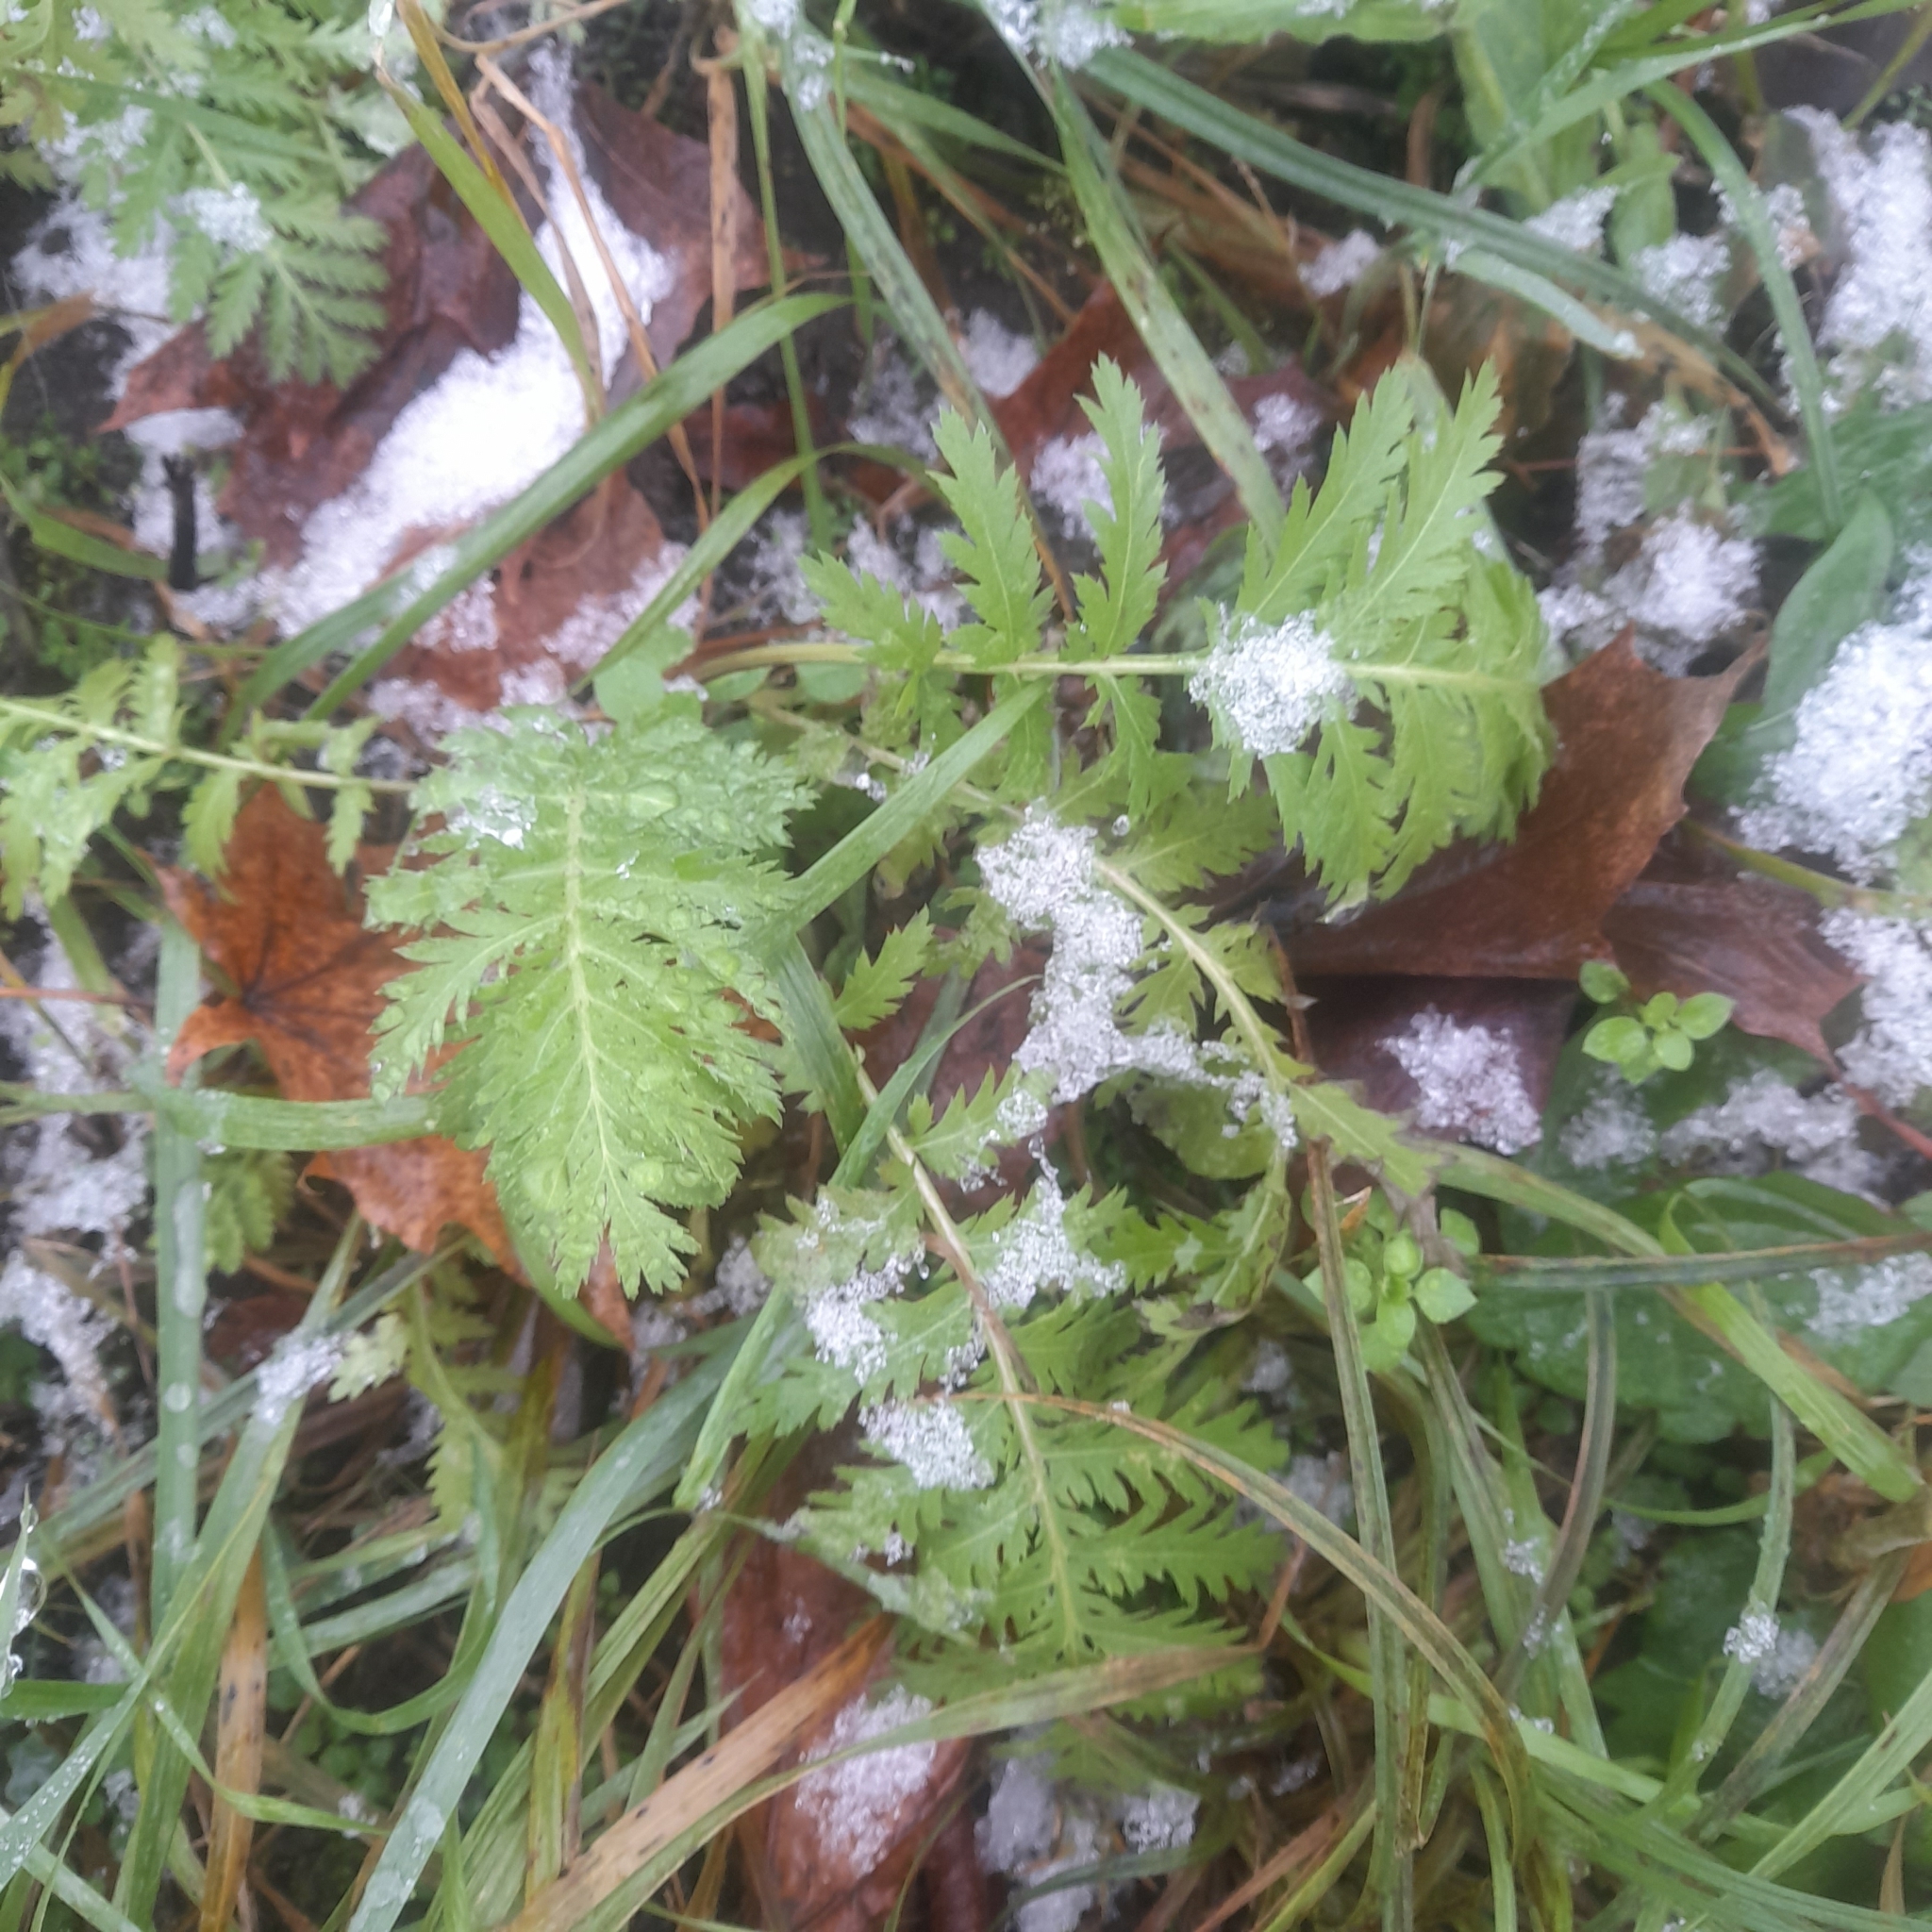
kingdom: Plantae
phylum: Tracheophyta
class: Magnoliopsida
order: Asterales
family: Asteraceae
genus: Tanacetum
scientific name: Tanacetum vulgare
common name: Common tansy
